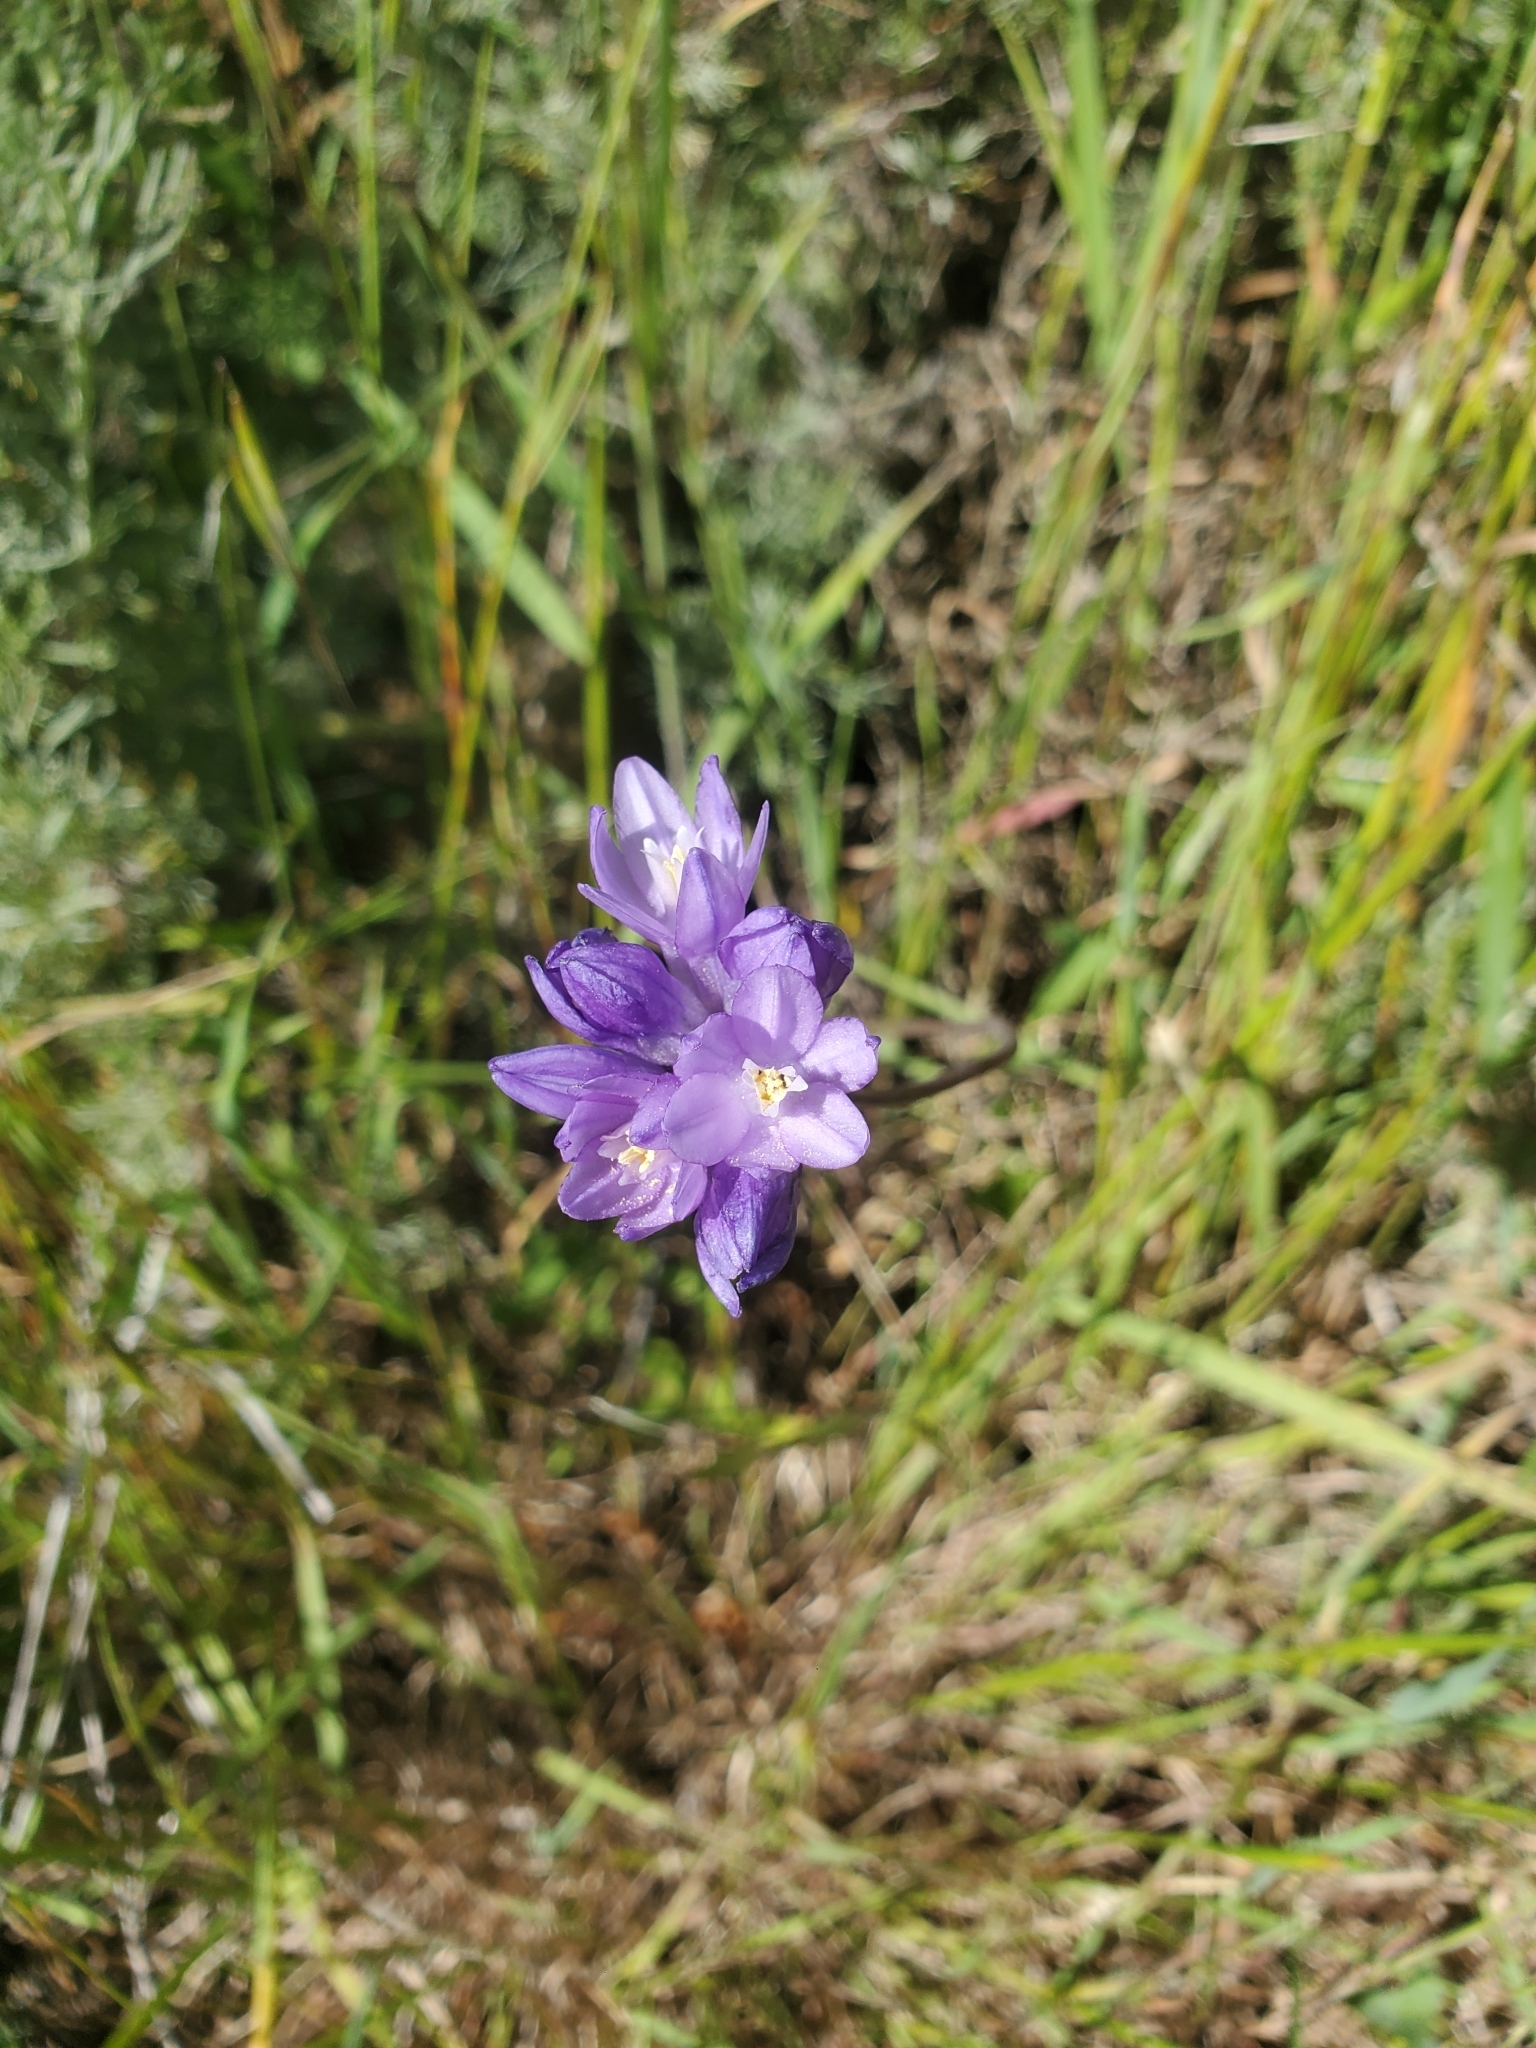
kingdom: Plantae
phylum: Tracheophyta
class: Liliopsida
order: Asparagales
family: Asparagaceae
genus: Dipterostemon
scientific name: Dipterostemon capitatus
